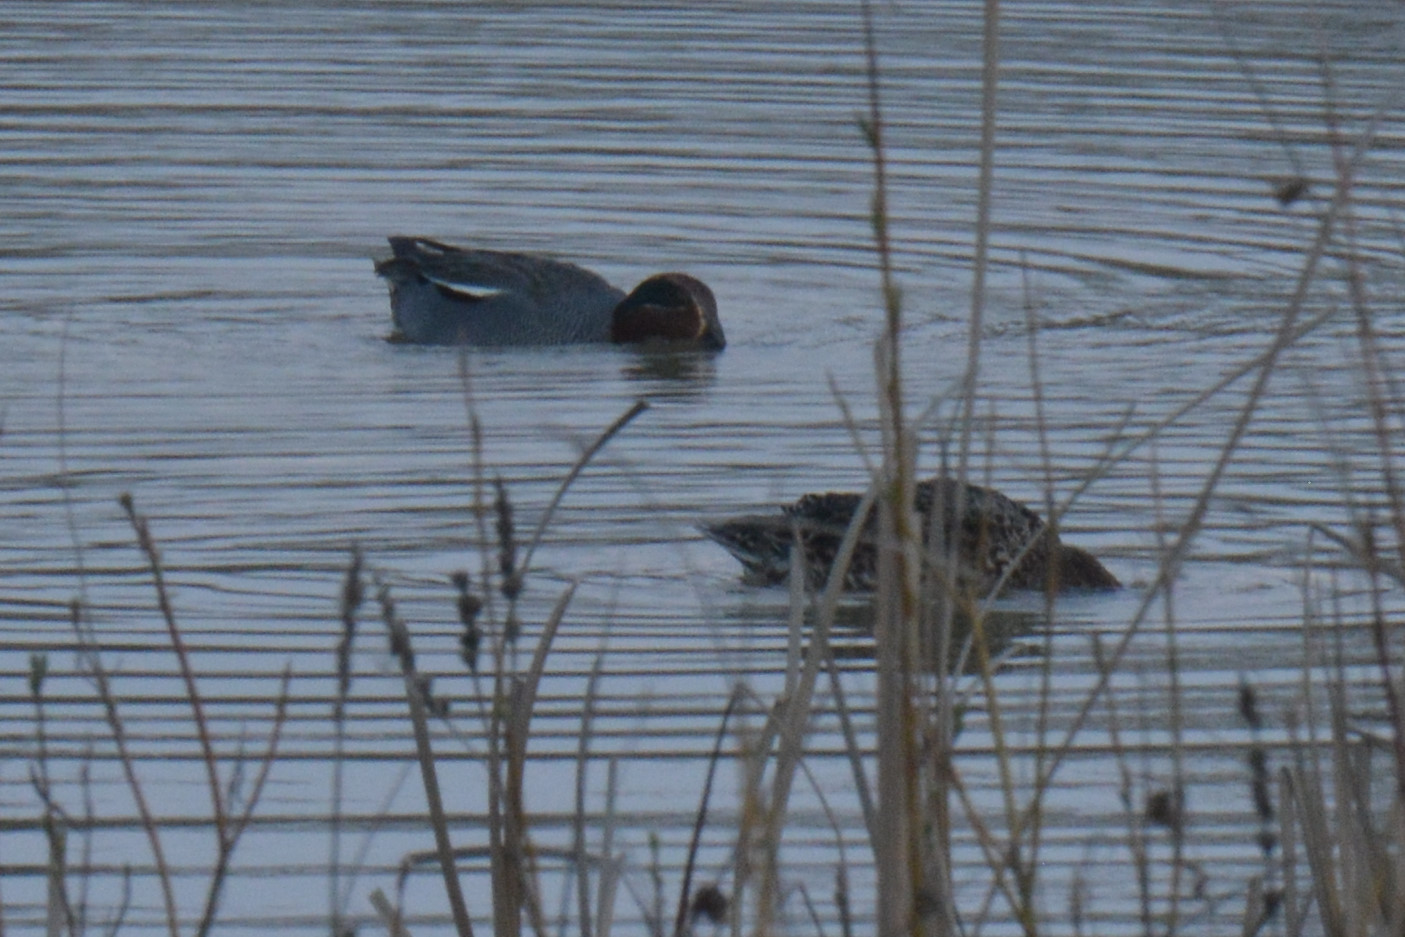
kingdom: Animalia
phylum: Chordata
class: Aves
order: Anseriformes
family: Anatidae
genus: Anas
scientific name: Anas crecca
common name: Eurasian teal
